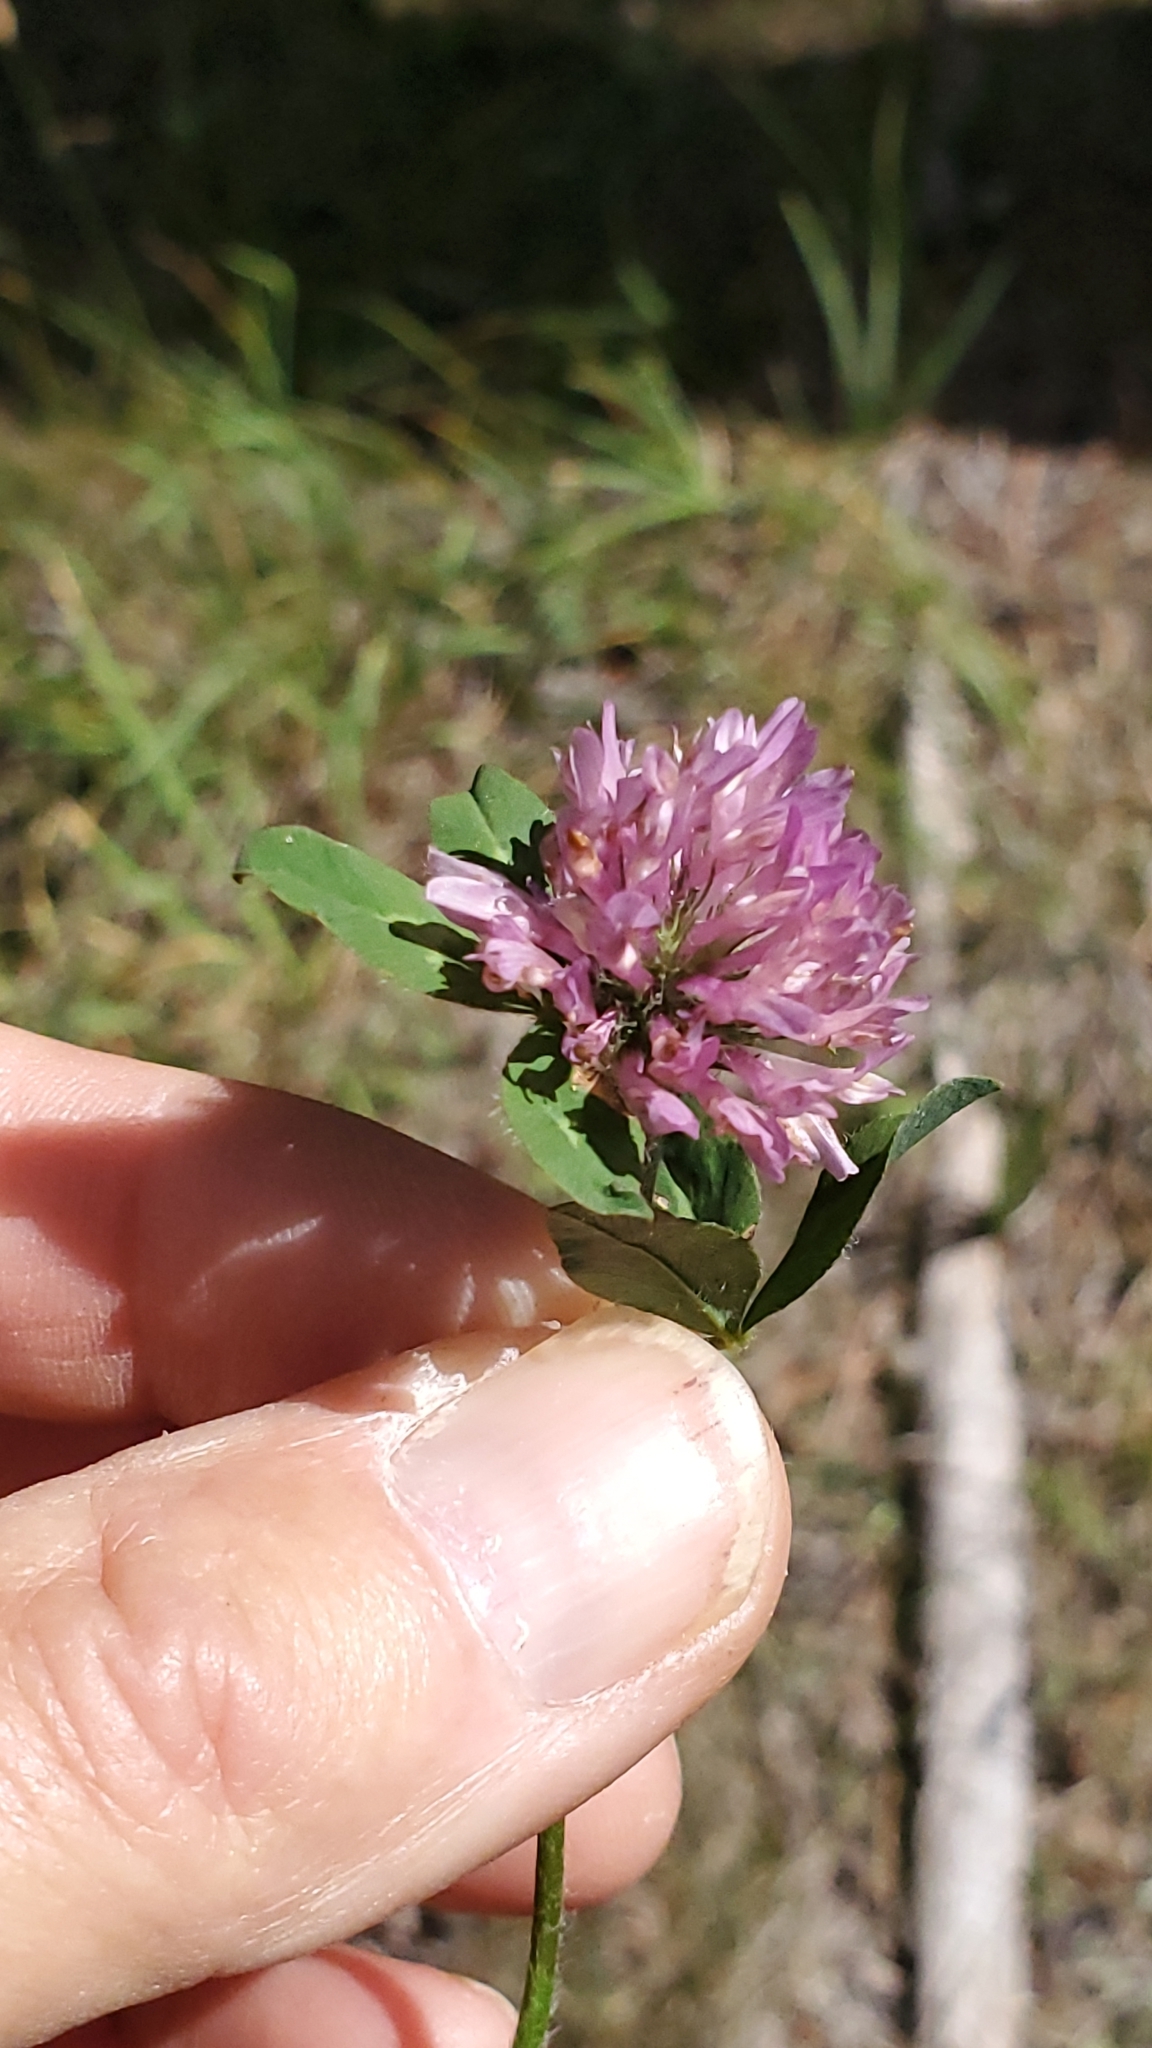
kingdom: Plantae
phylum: Tracheophyta
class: Magnoliopsida
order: Fabales
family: Fabaceae
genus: Trifolium
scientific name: Trifolium pratense
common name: Red clover
